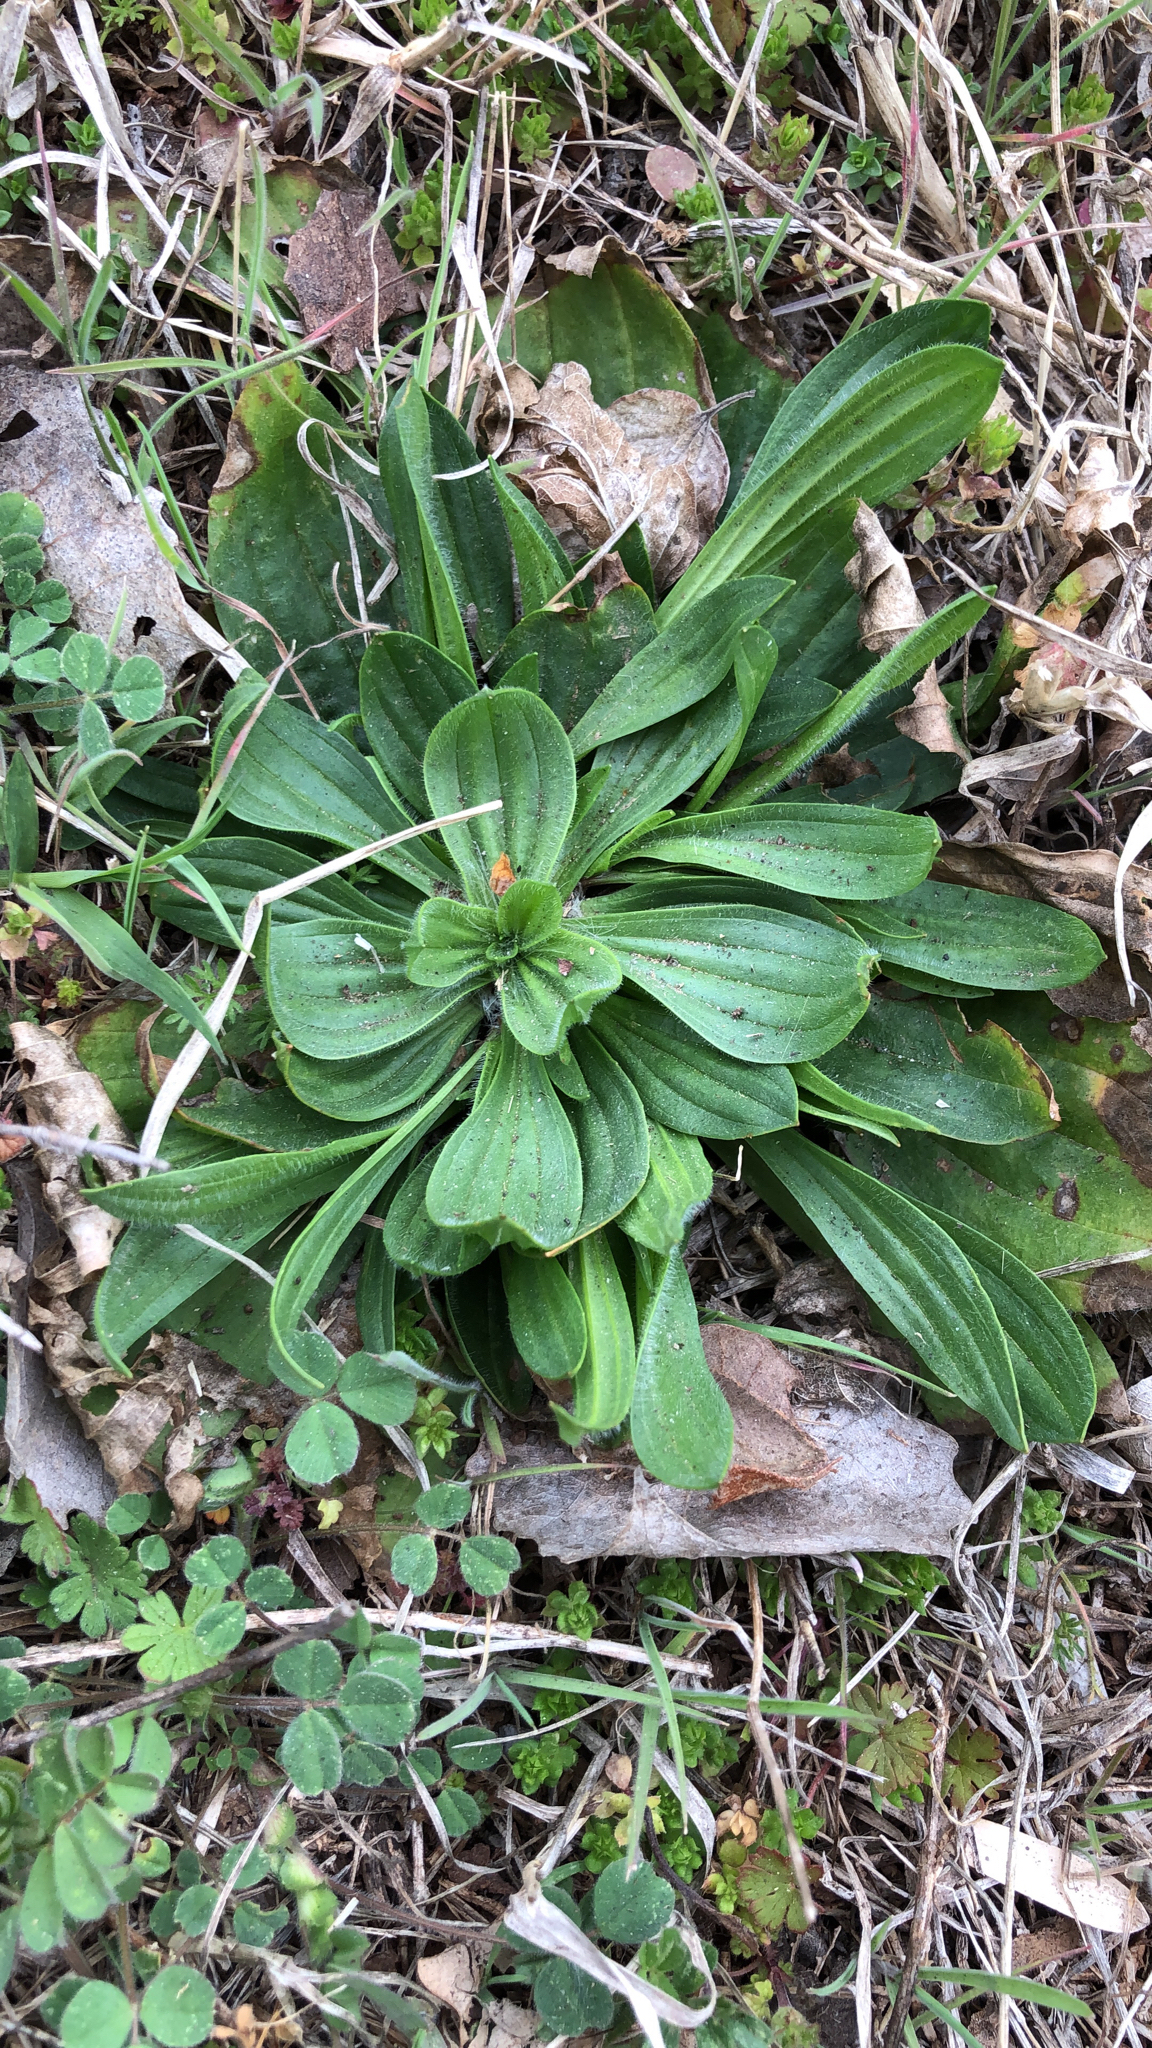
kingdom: Plantae
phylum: Tracheophyta
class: Magnoliopsida
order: Lamiales
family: Plantaginaceae
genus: Plantago
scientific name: Plantago lanceolata
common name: Ribwort plantain
